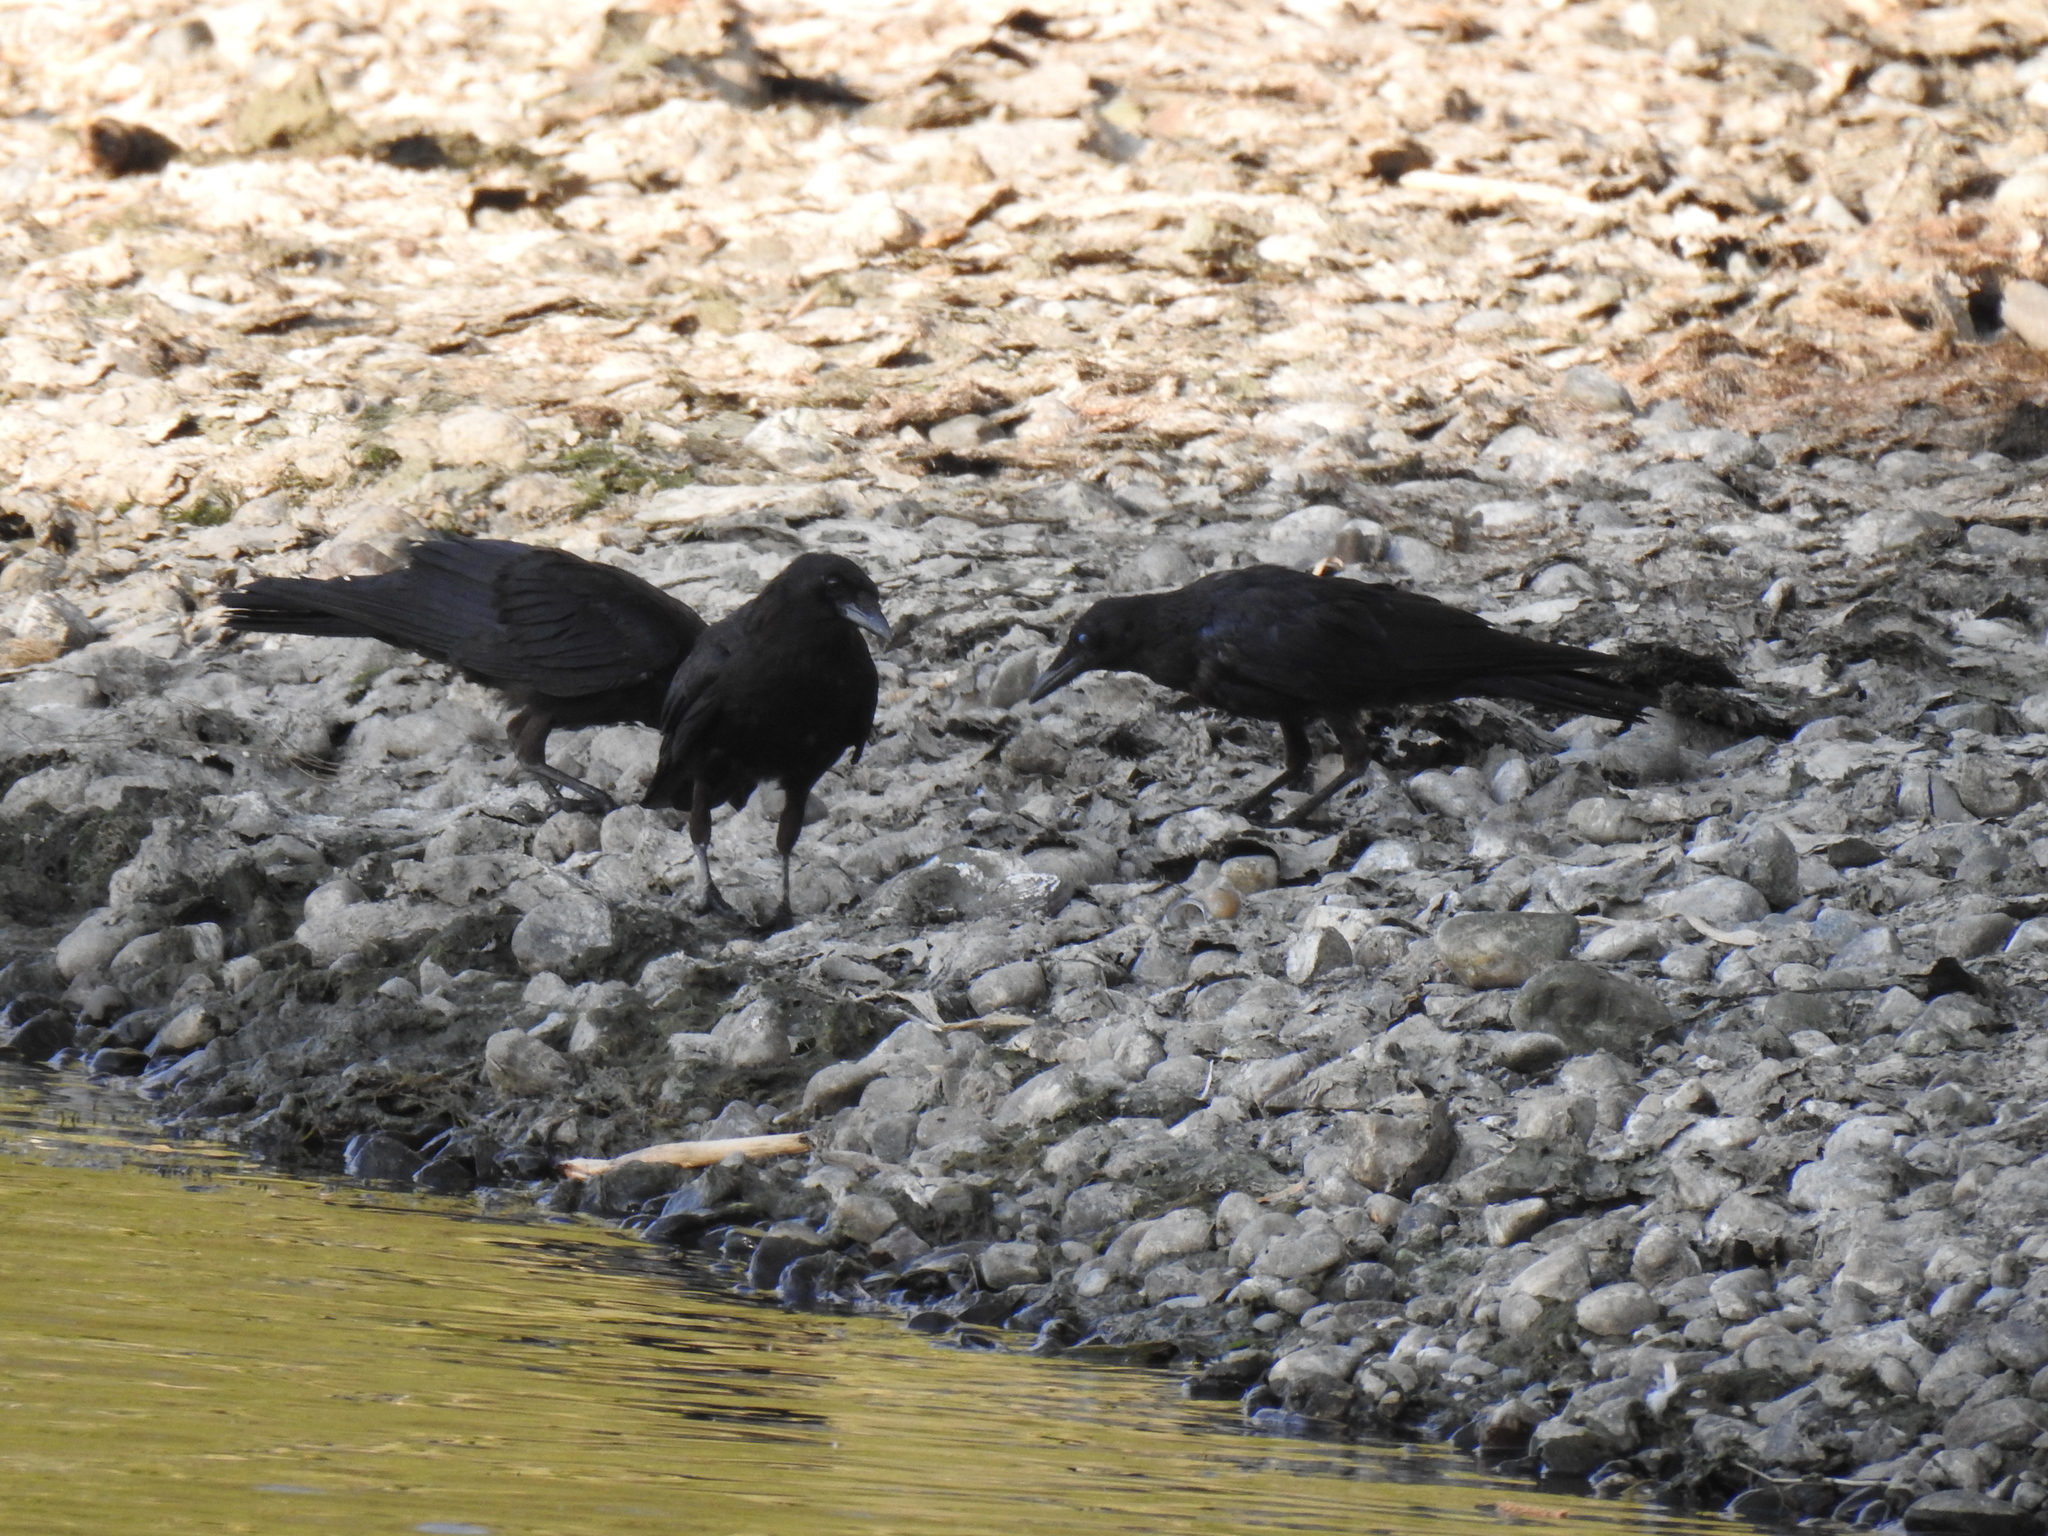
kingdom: Animalia
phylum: Chordata
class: Aves
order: Passeriformes
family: Corvidae
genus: Corvus
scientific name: Corvus brachyrhynchos
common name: American crow
